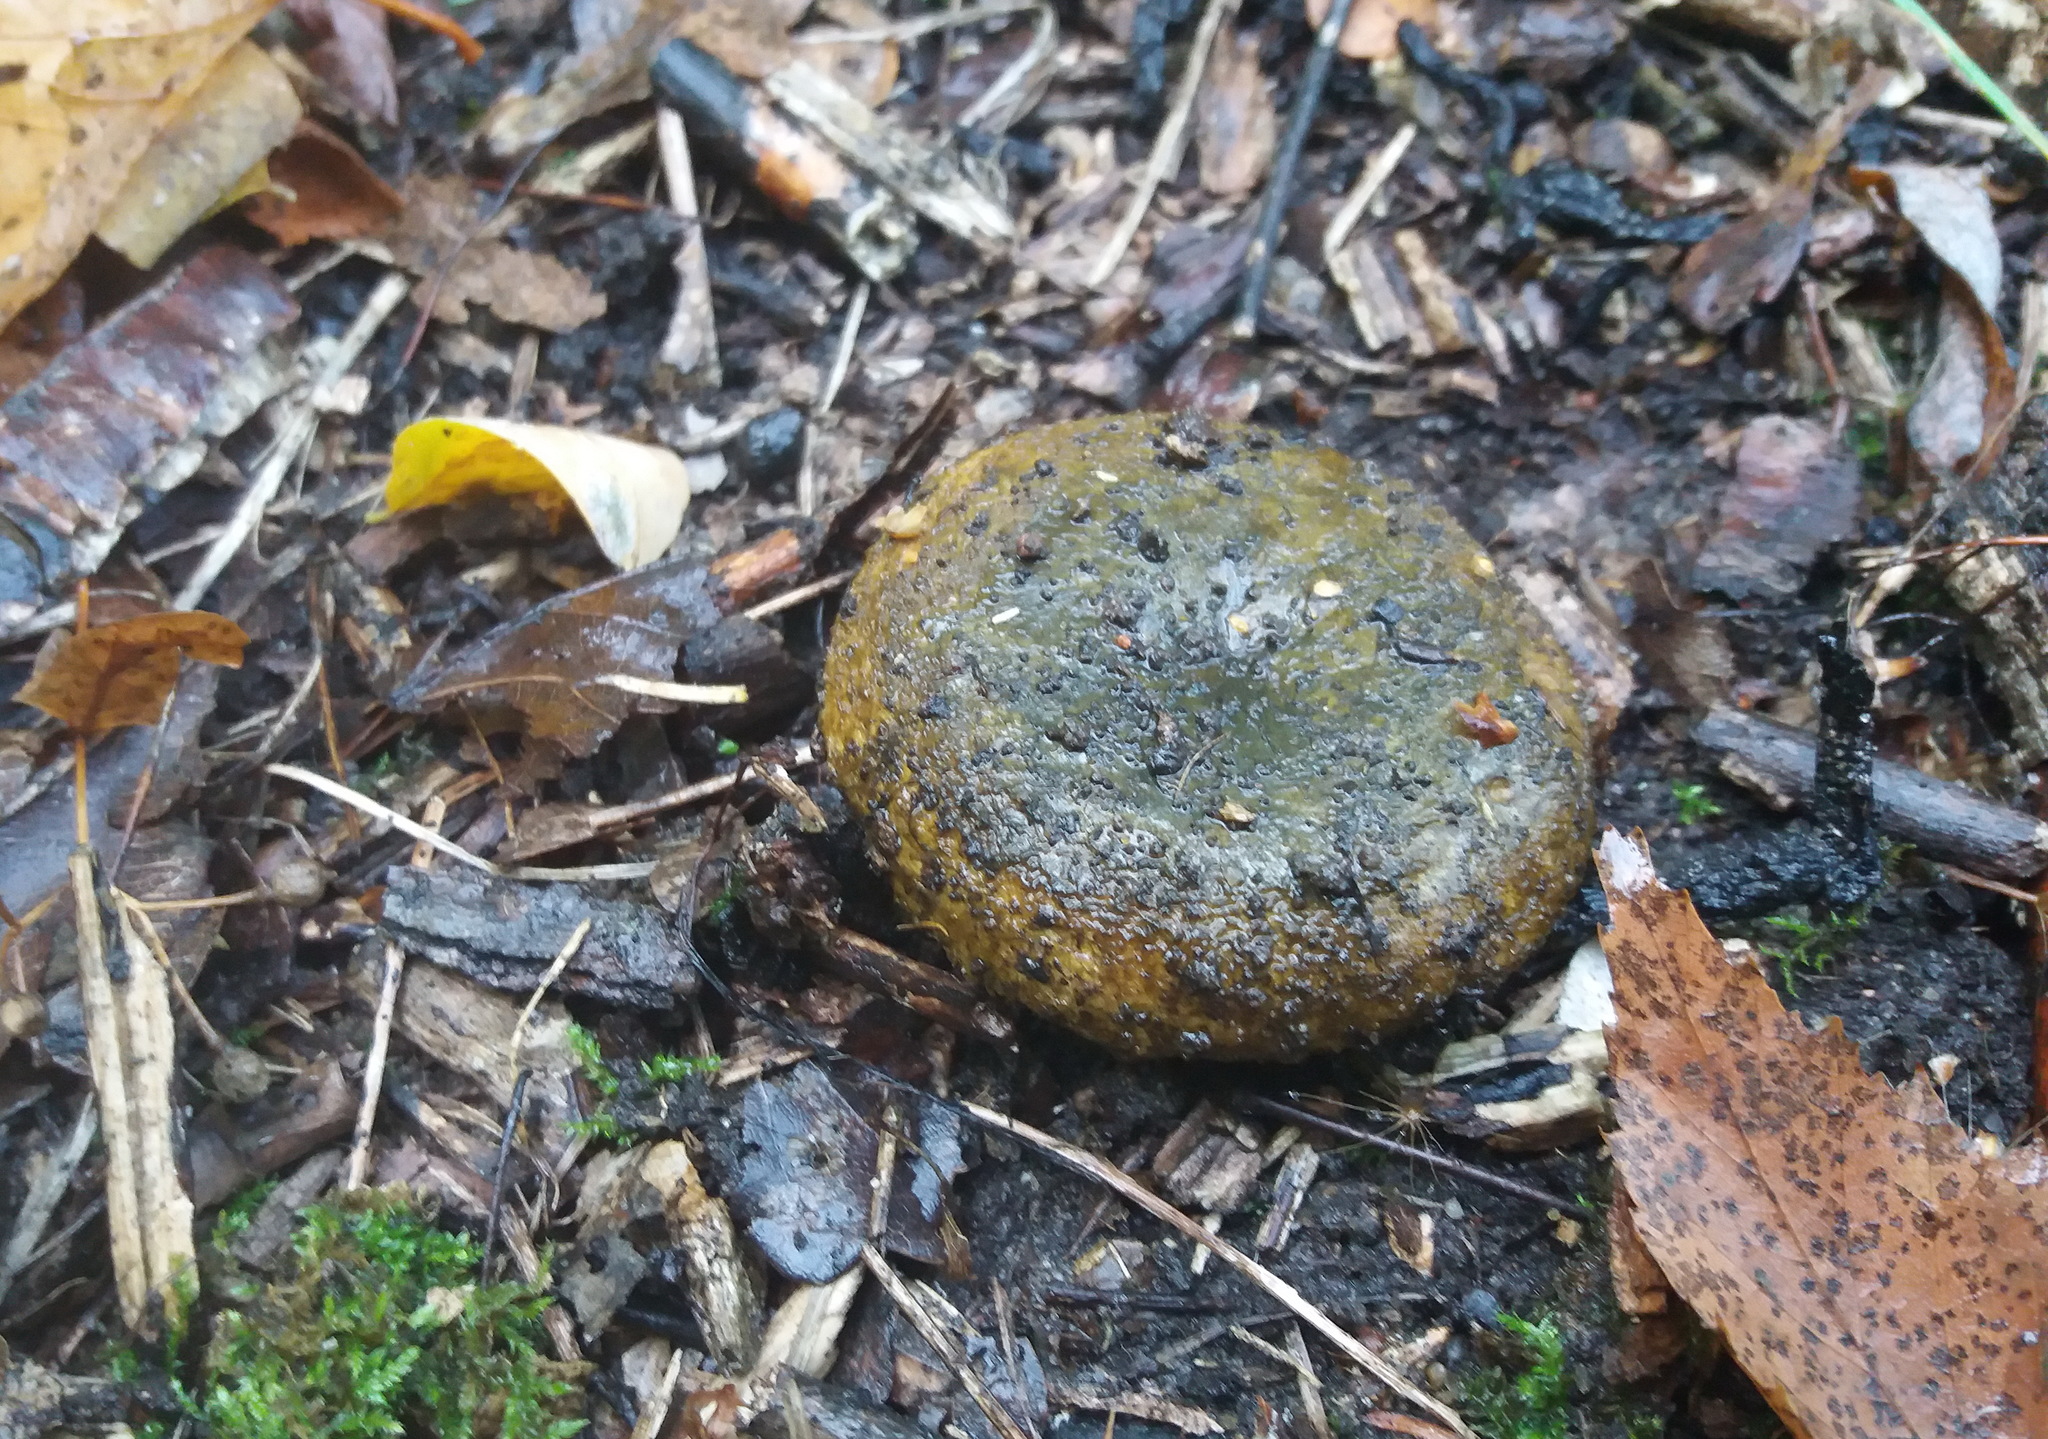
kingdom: Fungi
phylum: Basidiomycota
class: Agaricomycetes
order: Russulales
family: Russulaceae
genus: Lactarius
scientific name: Lactarius turpis
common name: Ugly milk-cap
